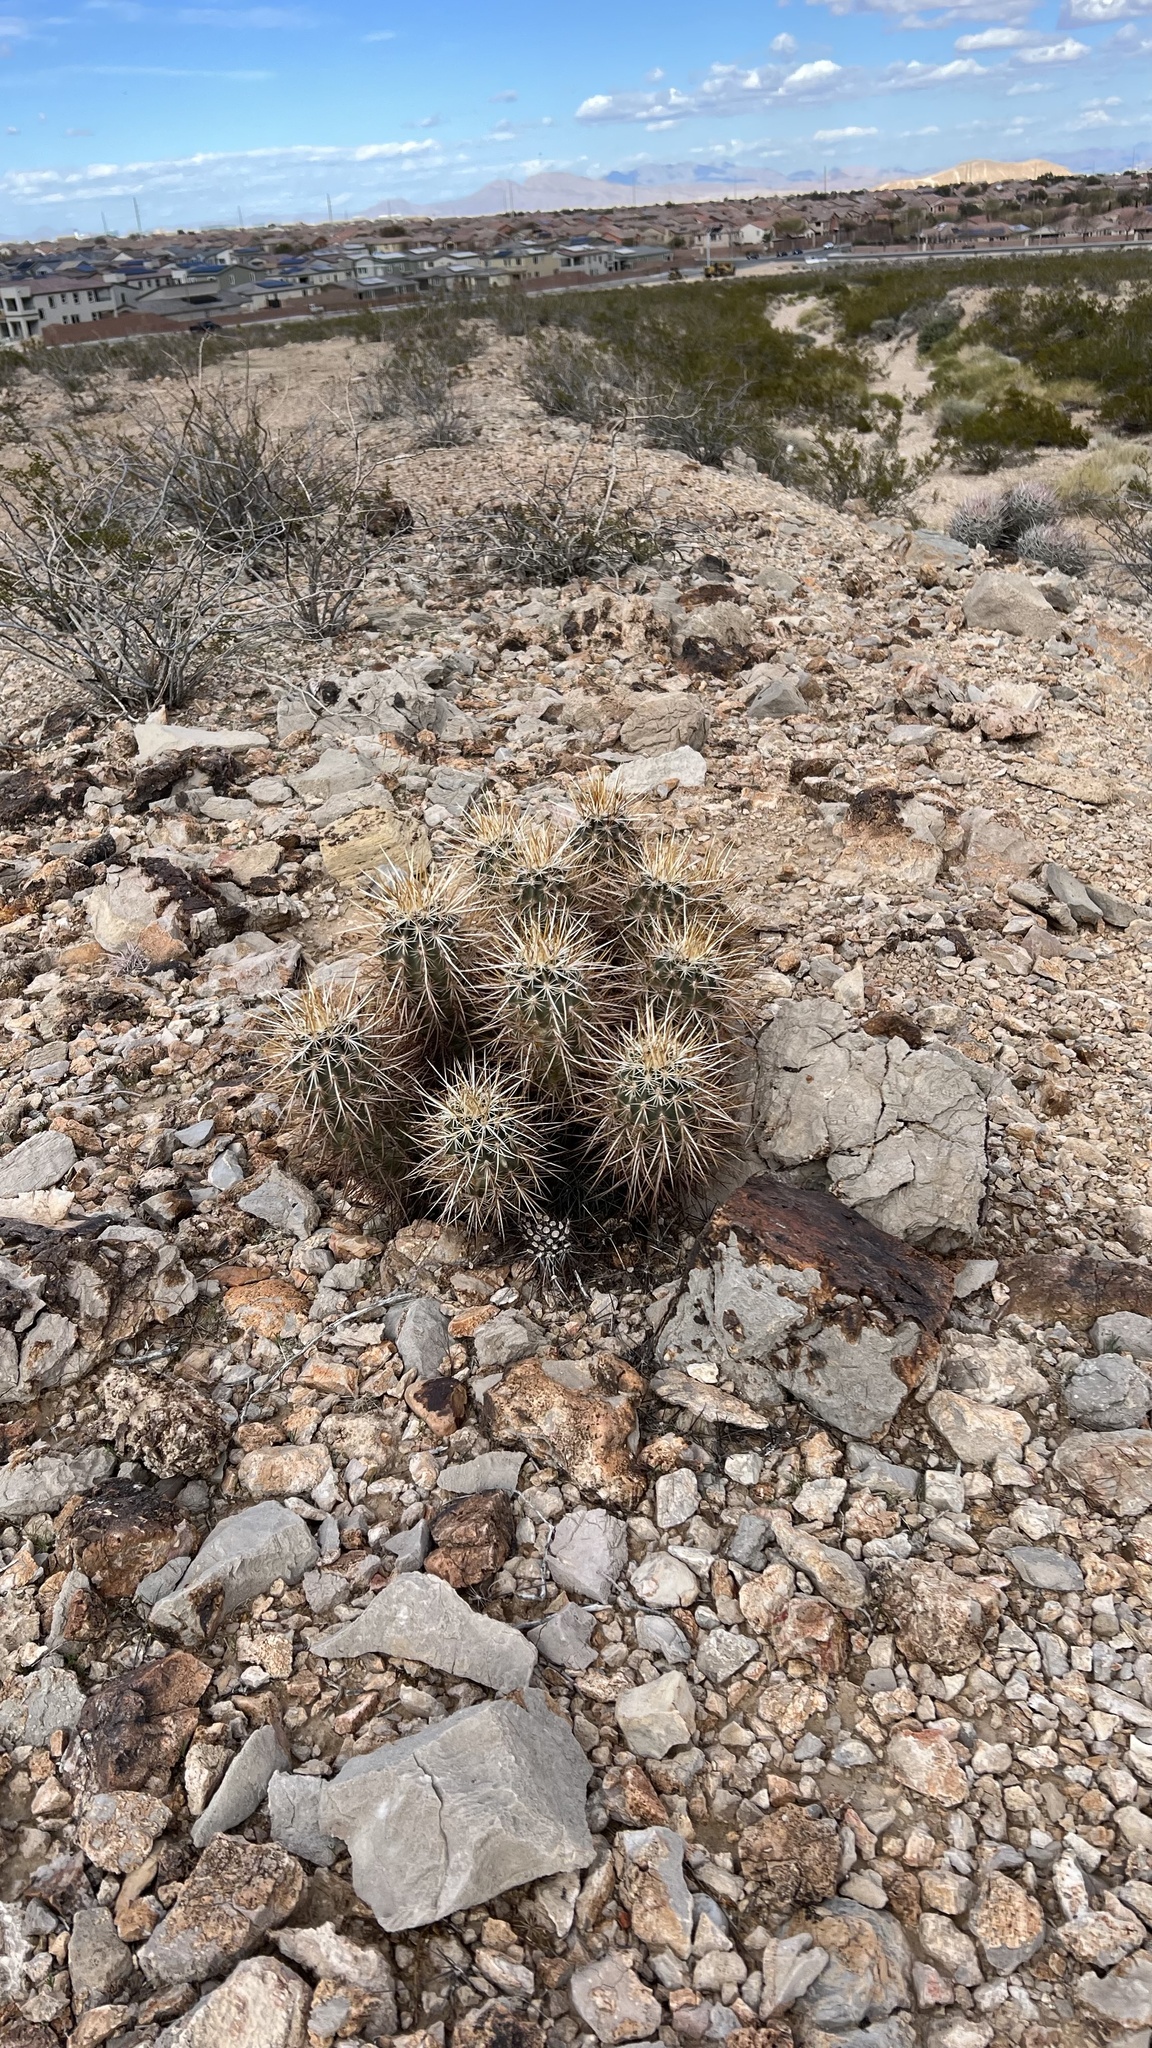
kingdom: Plantae
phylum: Tracheophyta
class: Magnoliopsida
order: Caryophyllales
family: Cactaceae
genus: Echinocereus
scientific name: Echinocereus engelmannii
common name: Engelmann's hedgehog cactus
